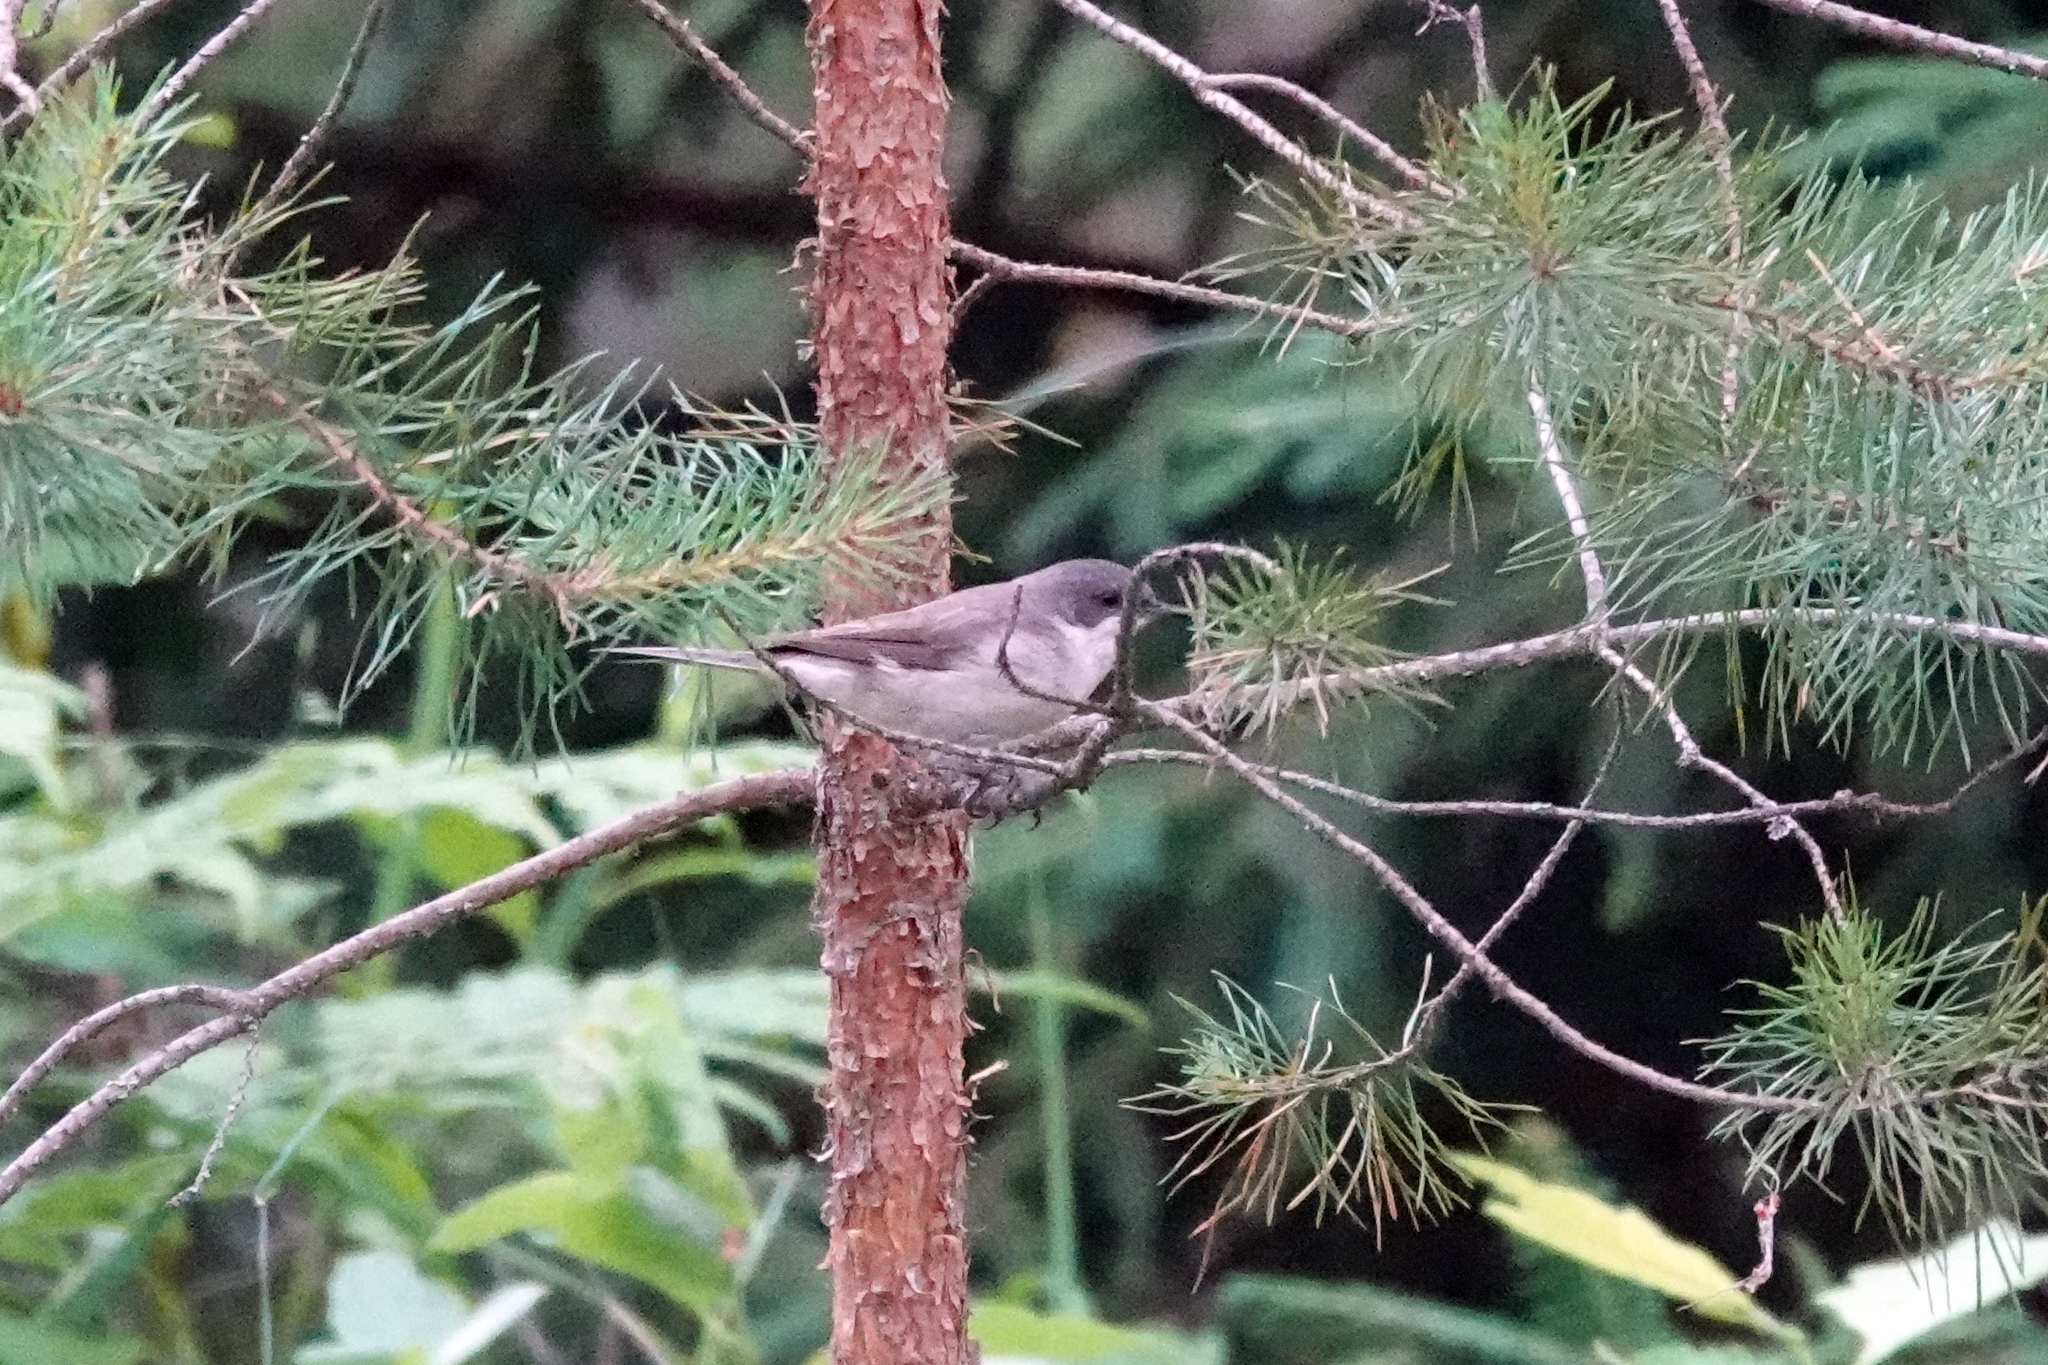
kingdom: Animalia
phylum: Chordata
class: Aves
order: Passeriformes
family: Sylviidae
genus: Sylvia
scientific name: Sylvia curruca
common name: Lesser whitethroat
